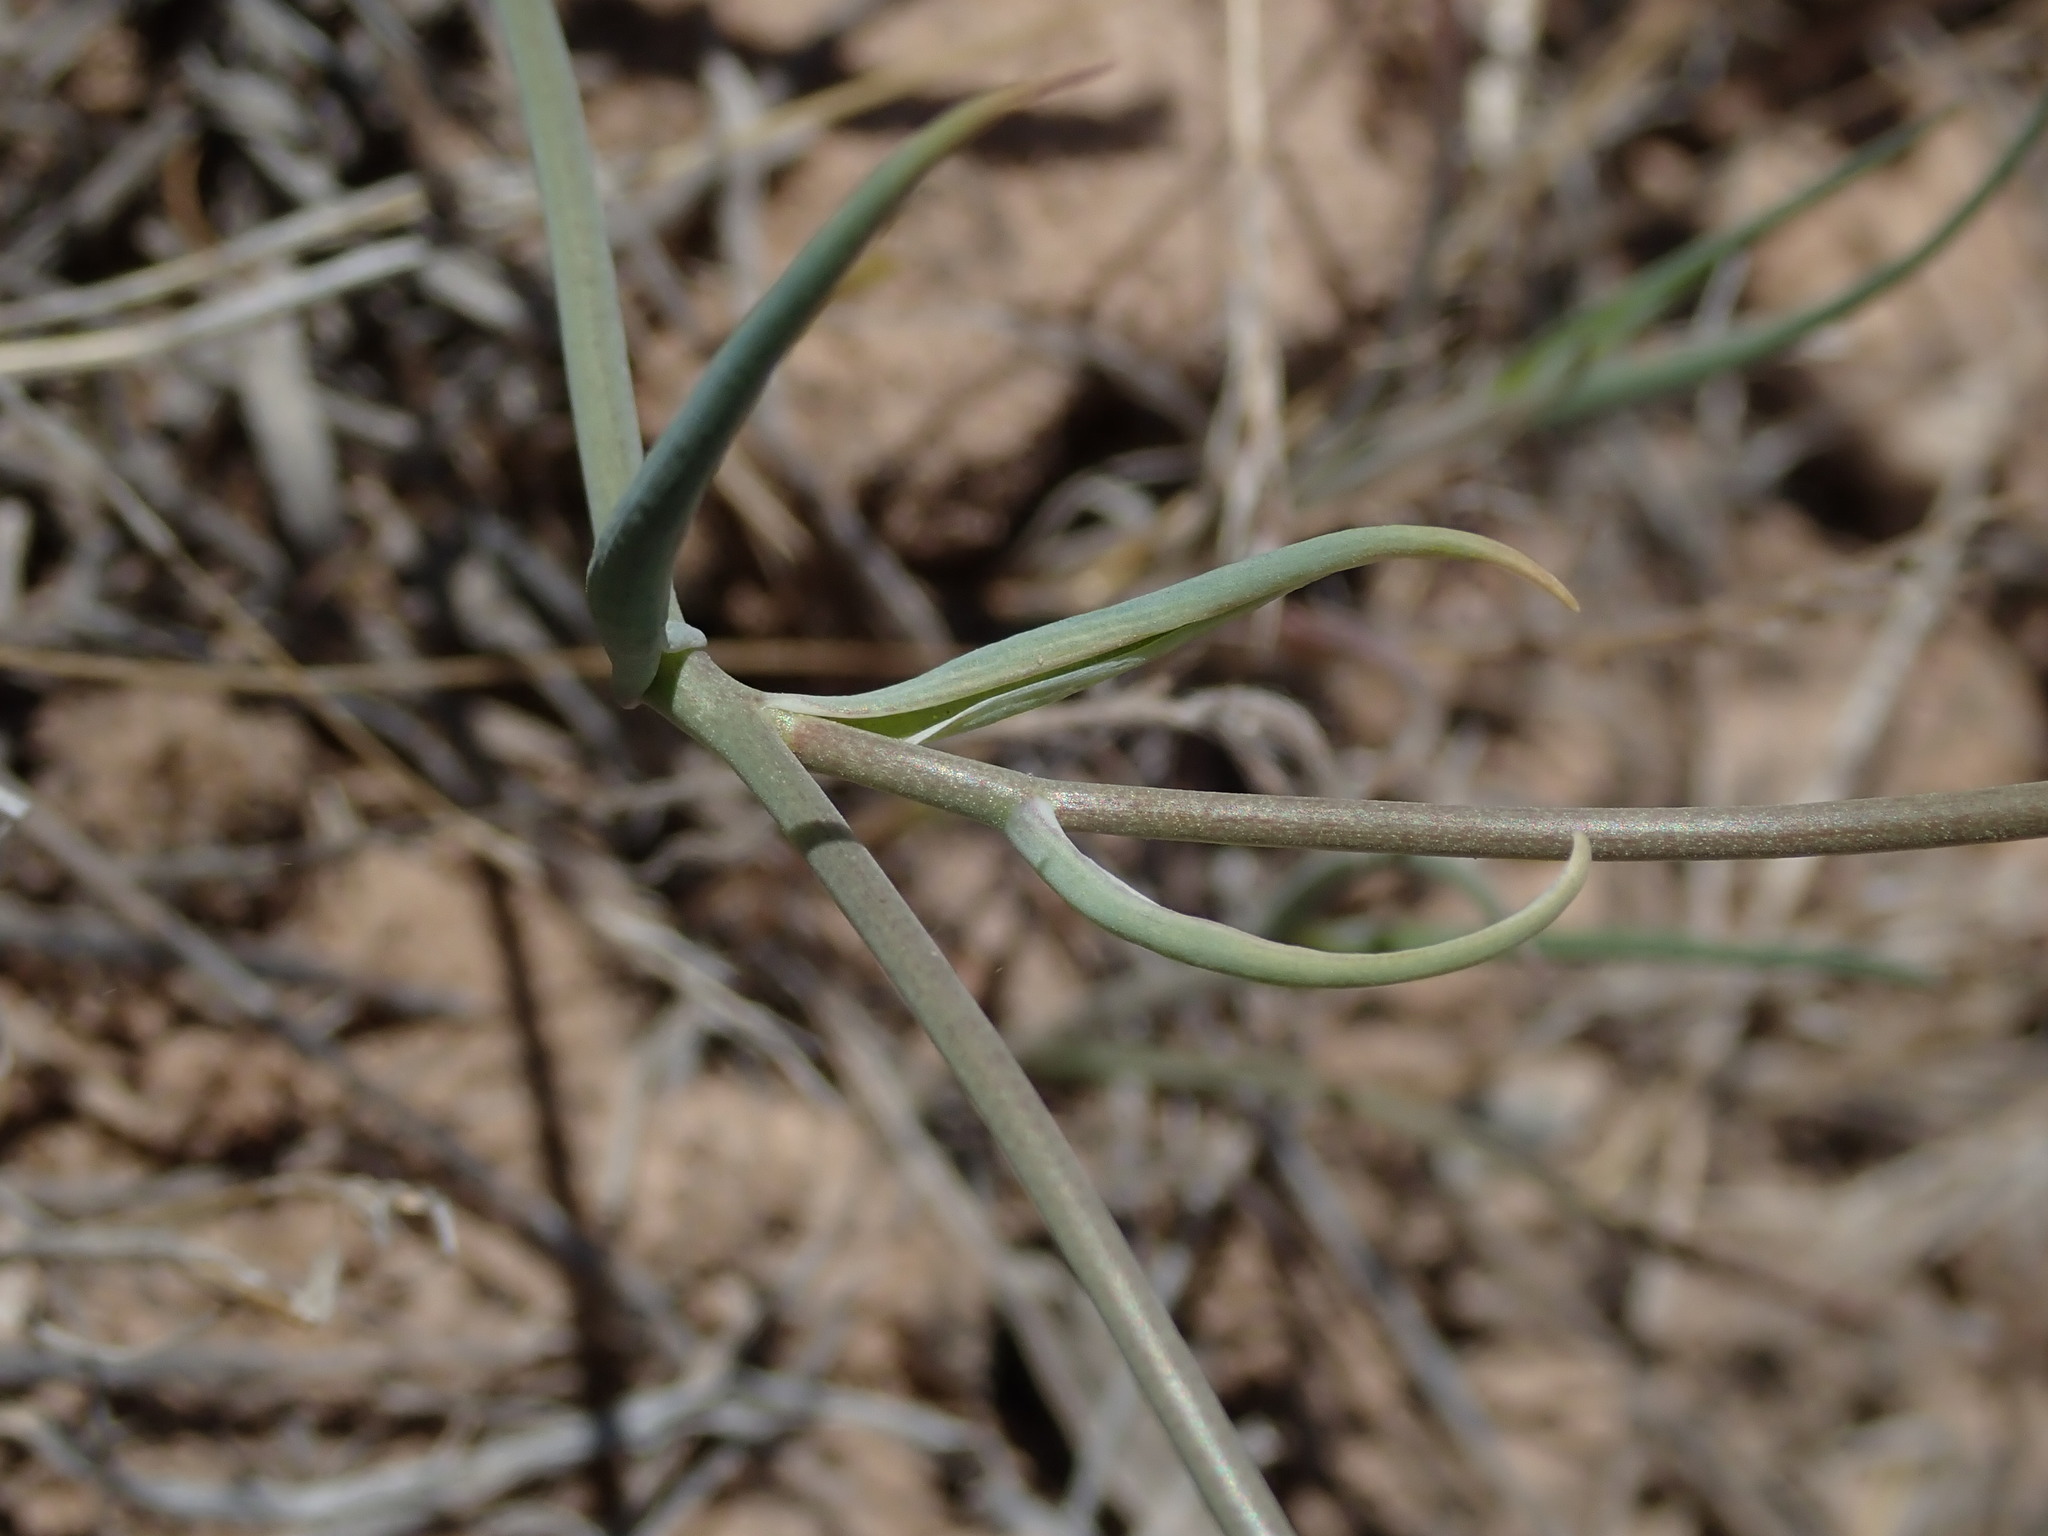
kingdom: Plantae
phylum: Tracheophyta
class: Liliopsida
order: Liliales
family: Liliaceae
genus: Calochortus
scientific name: Calochortus flexuosus
